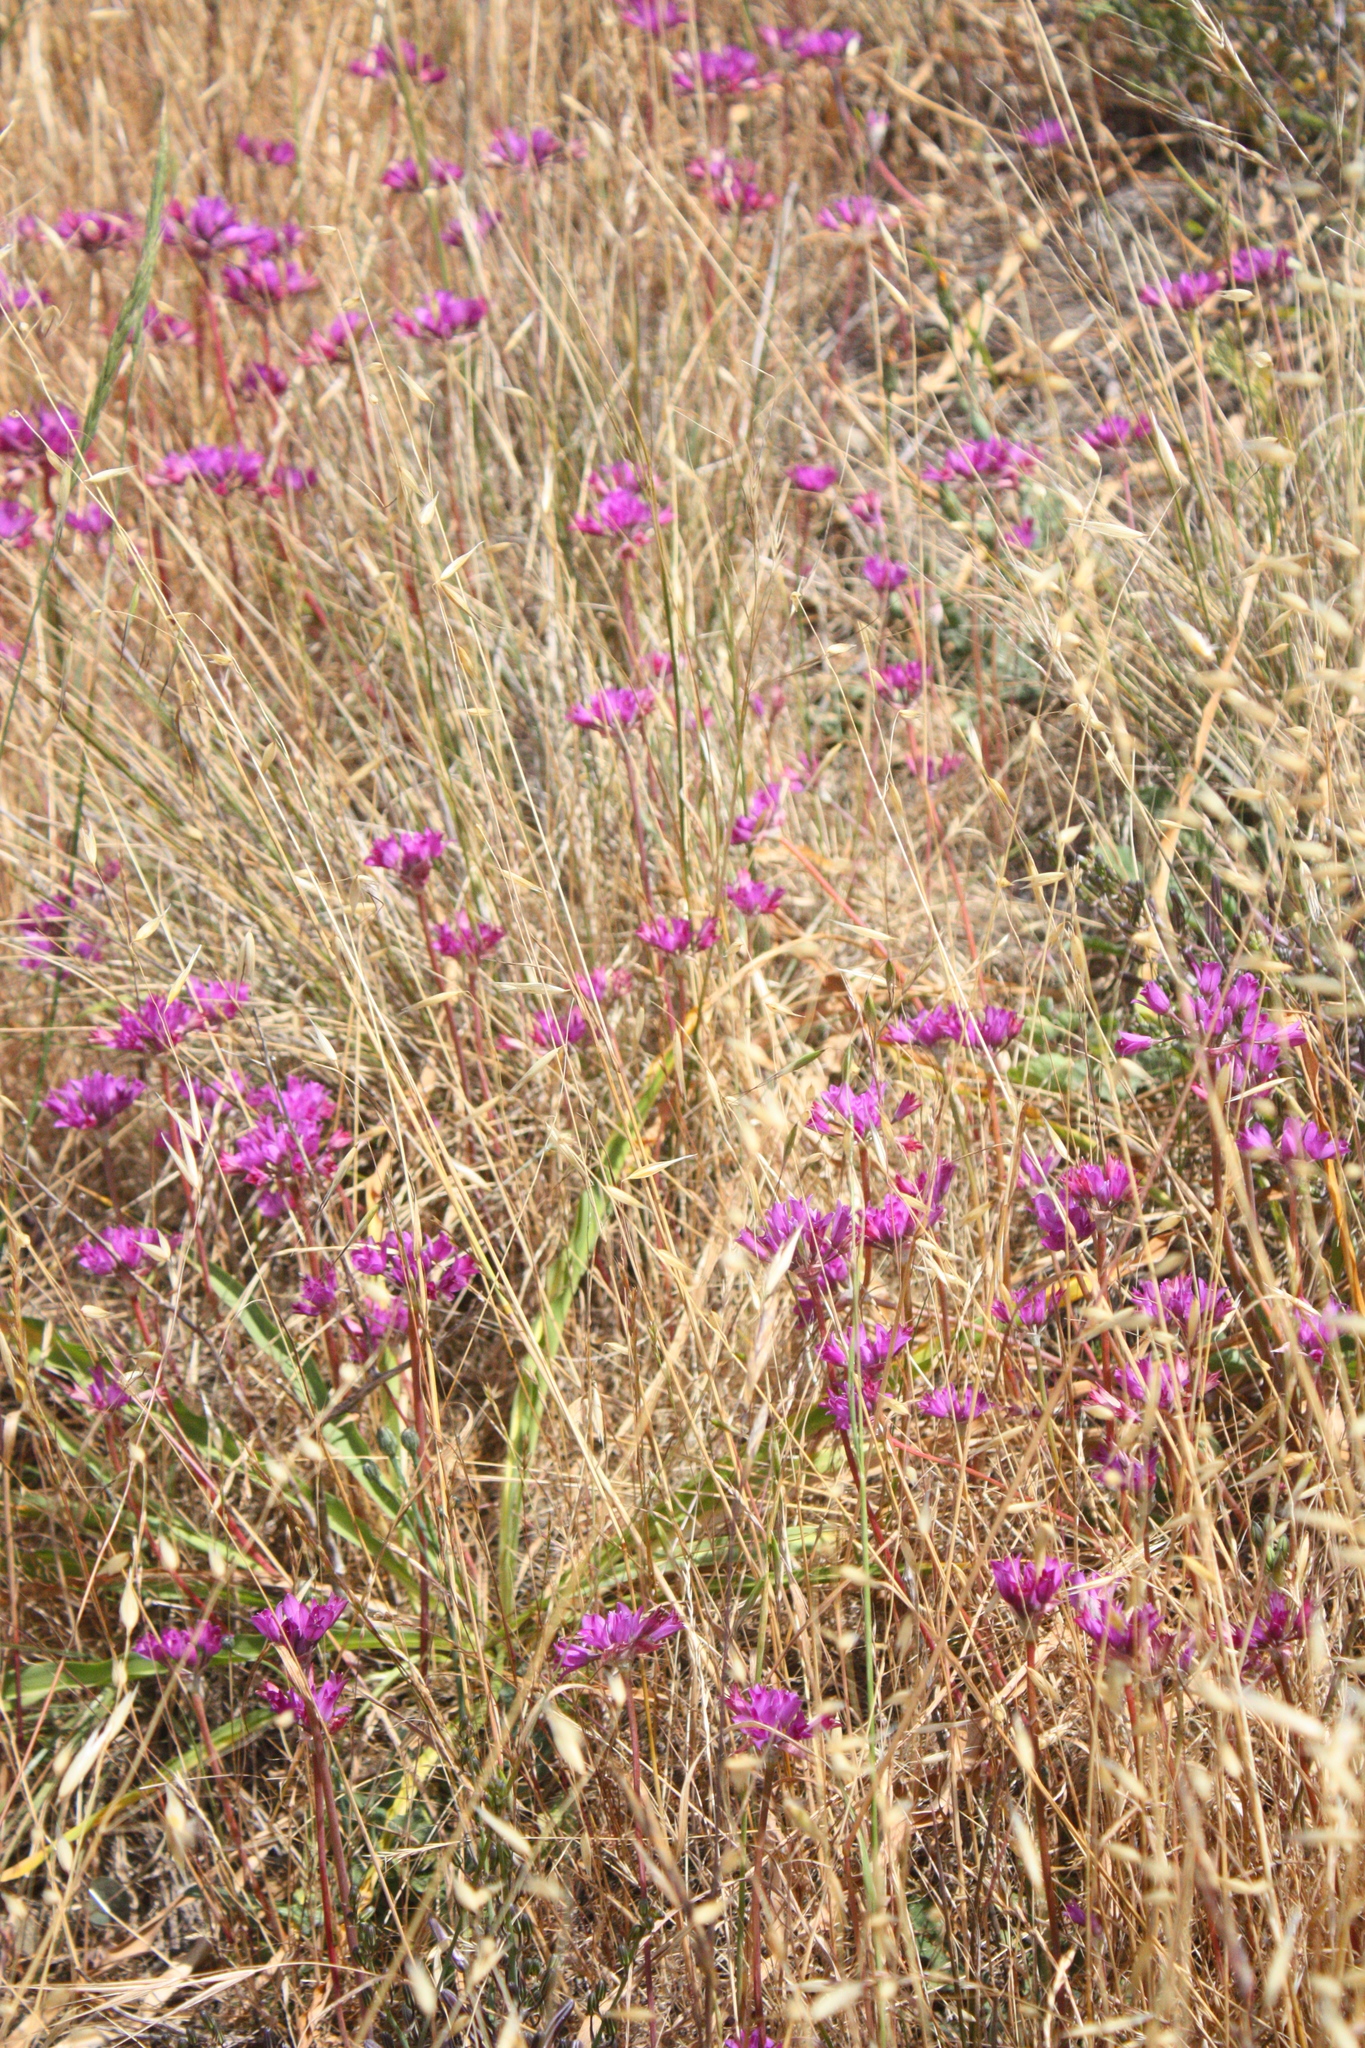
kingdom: Plantae
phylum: Tracheophyta
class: Liliopsida
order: Asparagales
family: Amaryllidaceae
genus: Allium
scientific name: Allium dichlamydeum
